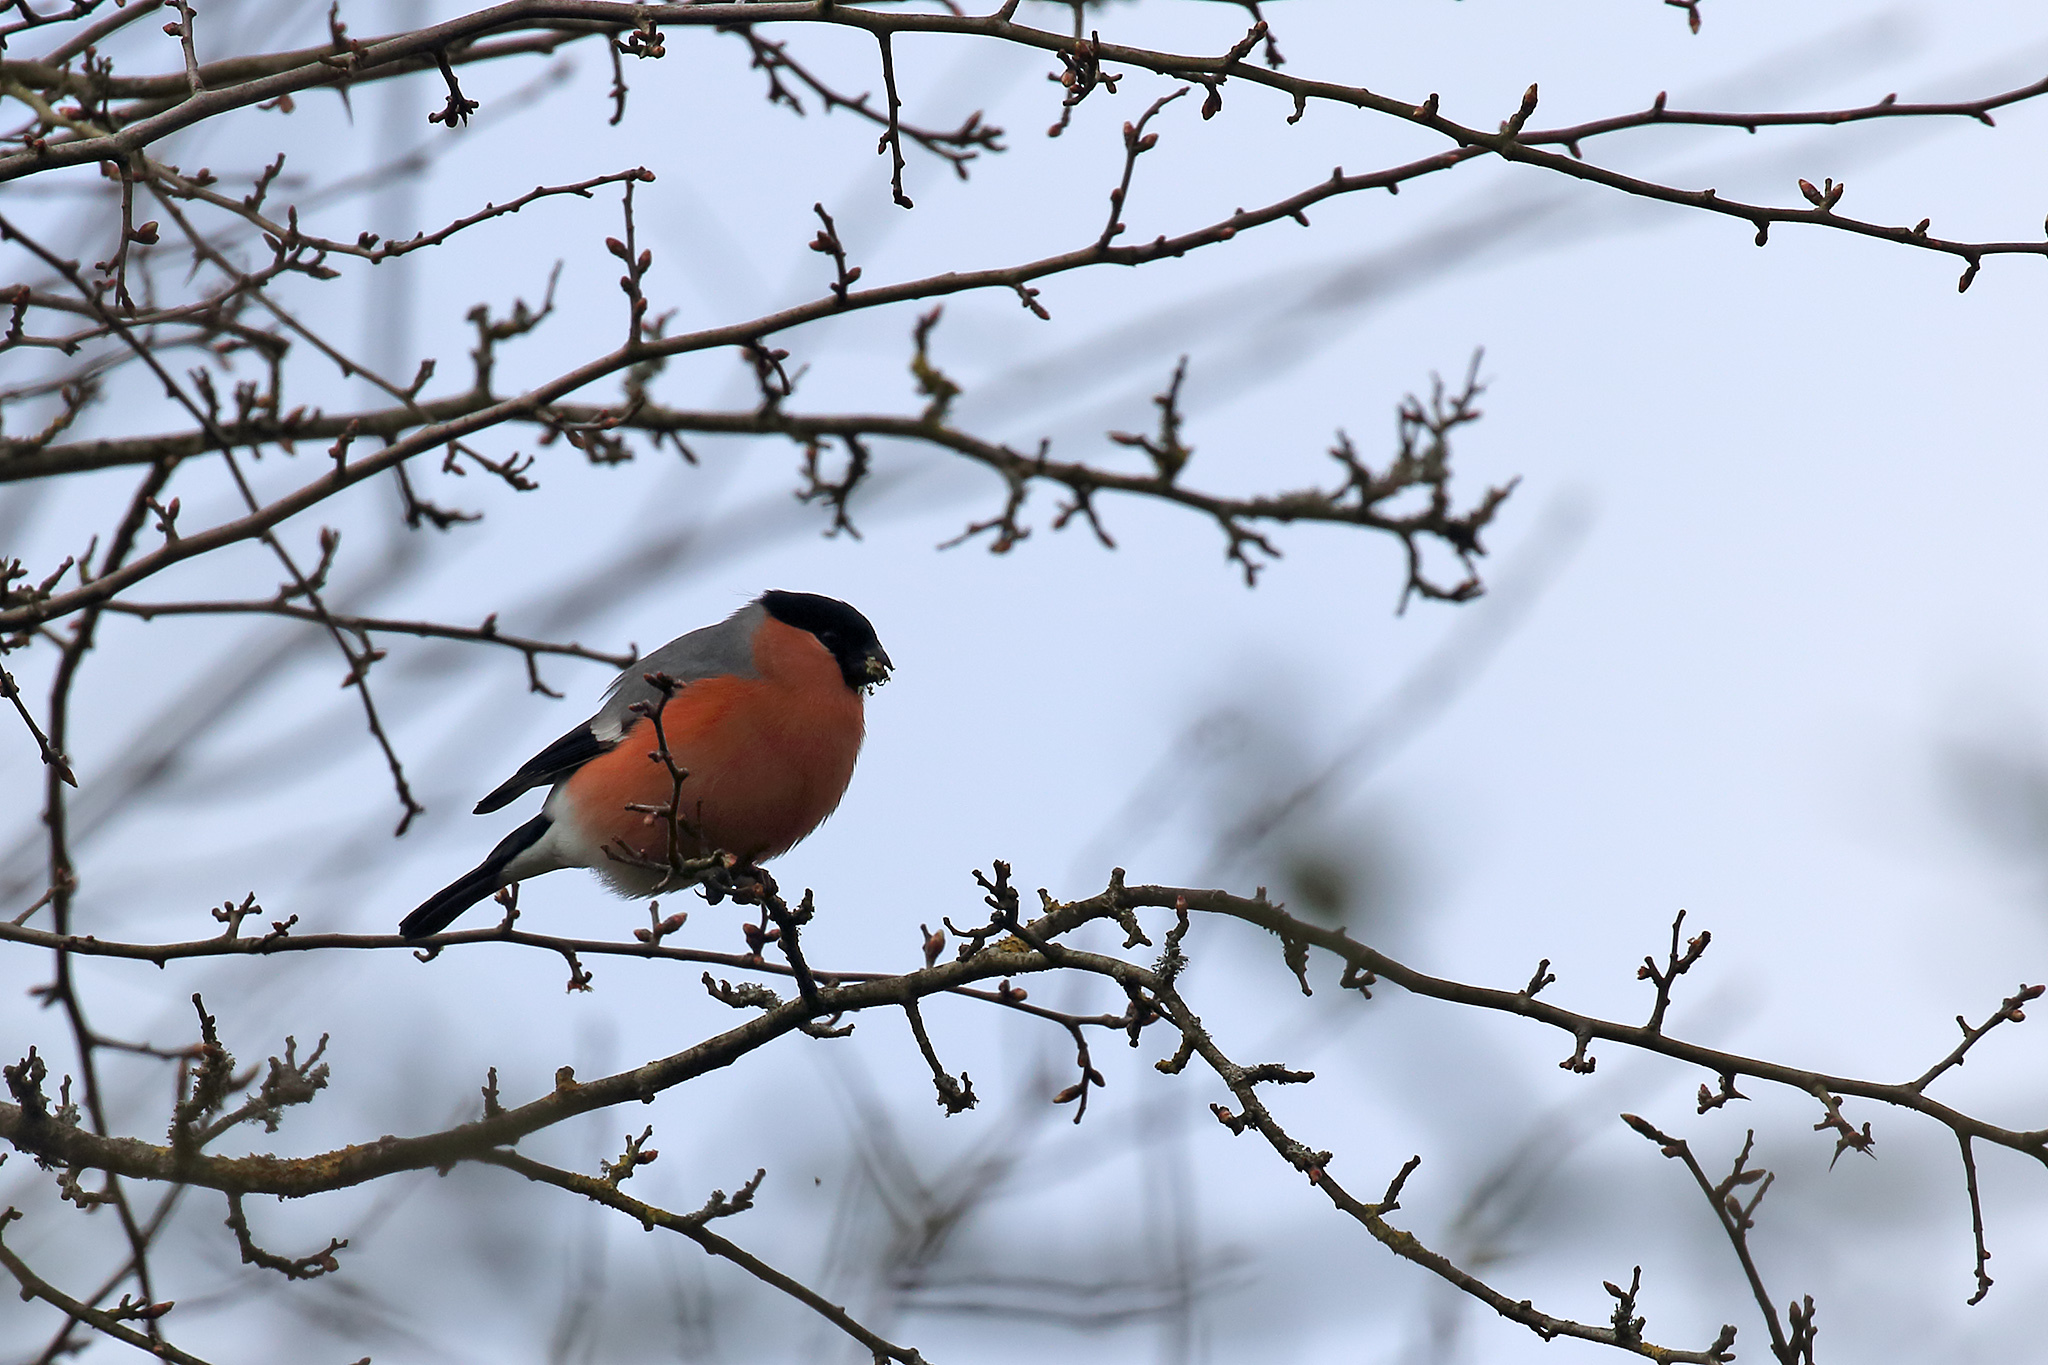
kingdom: Animalia
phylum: Chordata
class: Aves
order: Passeriformes
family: Fringillidae
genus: Pyrrhula
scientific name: Pyrrhula pyrrhula
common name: Eurasian bullfinch
